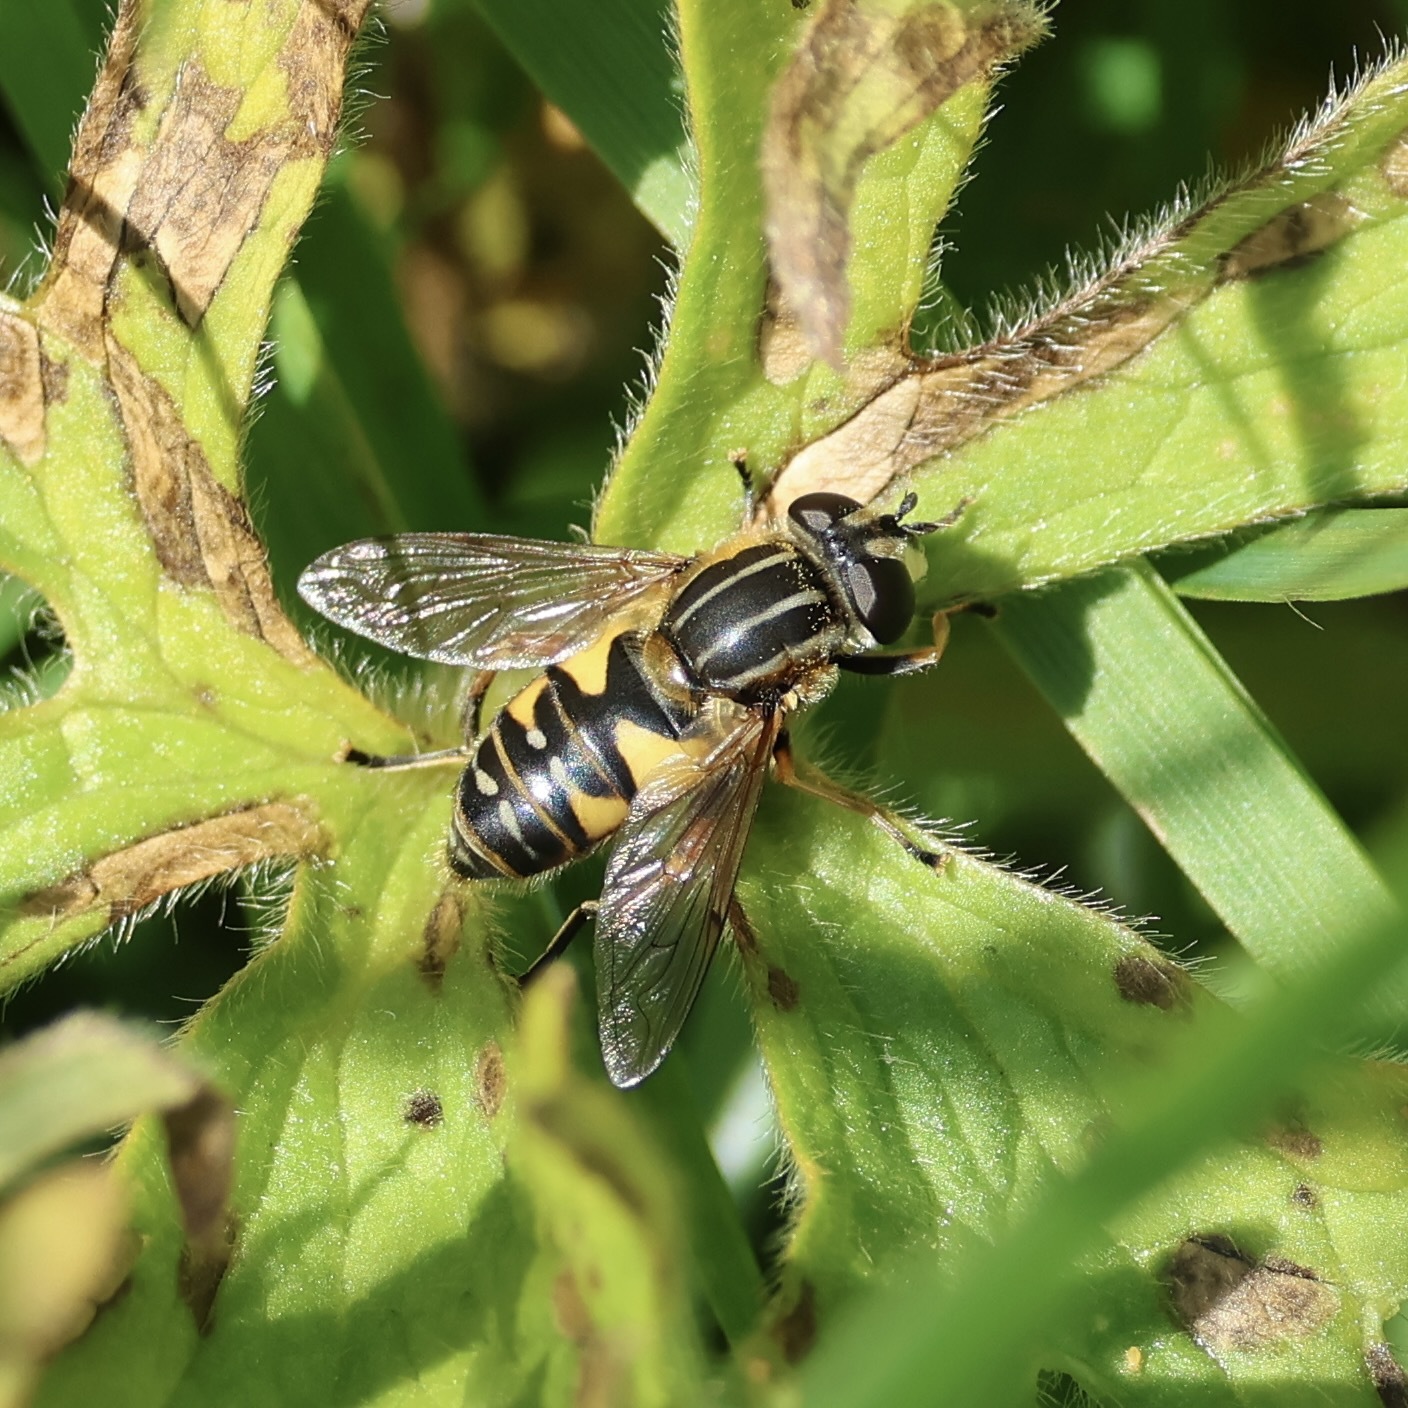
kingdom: Animalia
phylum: Arthropoda
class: Insecta
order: Diptera
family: Syrphidae
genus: Helophilus
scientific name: Helophilus pendulus
